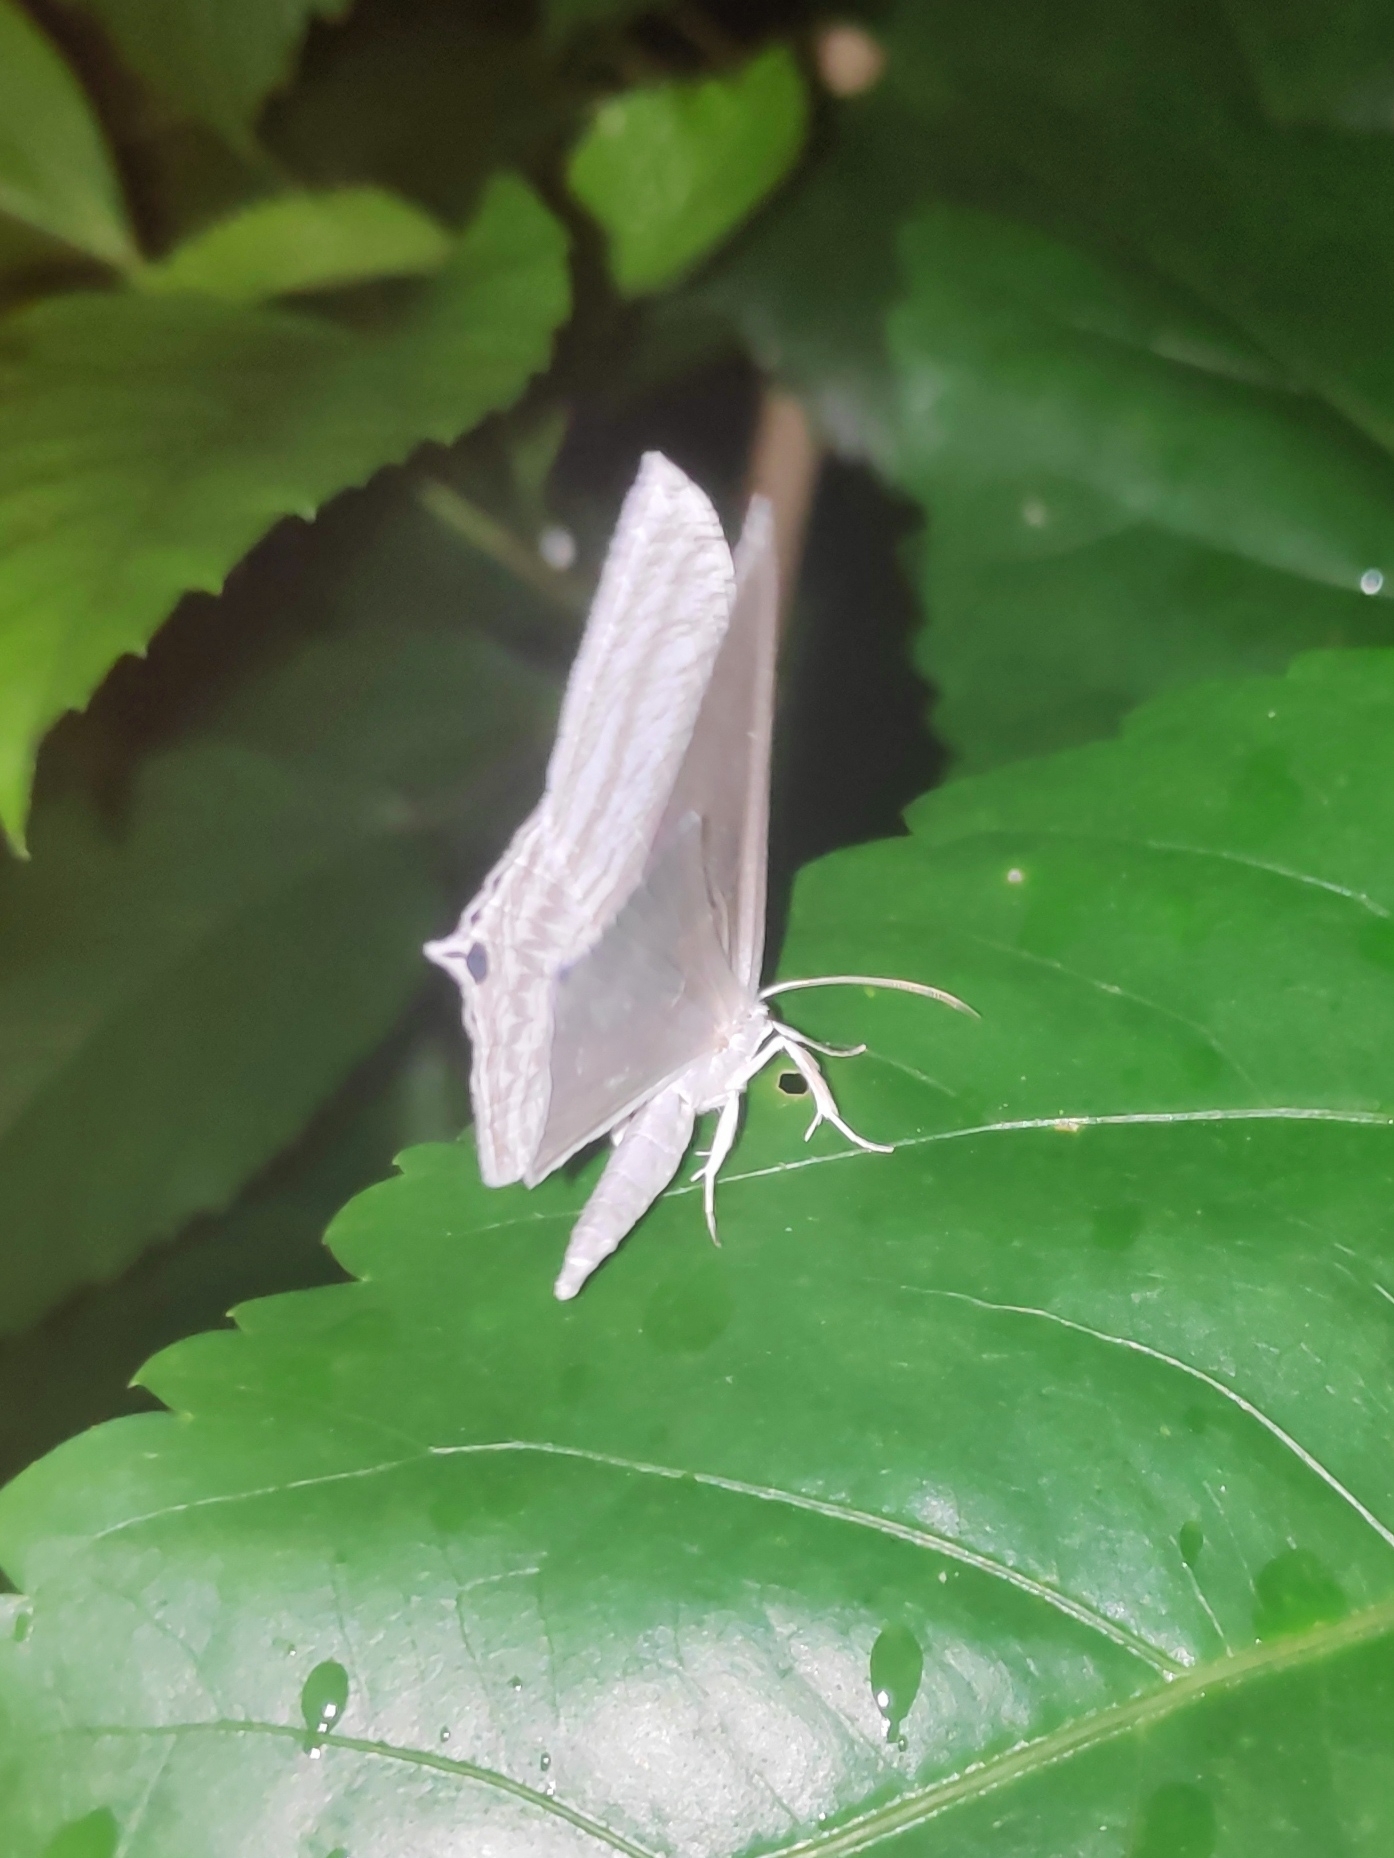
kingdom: Animalia
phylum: Arthropoda
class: Insecta
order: Lepidoptera
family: Uraniidae
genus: Micronia
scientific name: Micronia aculeata
